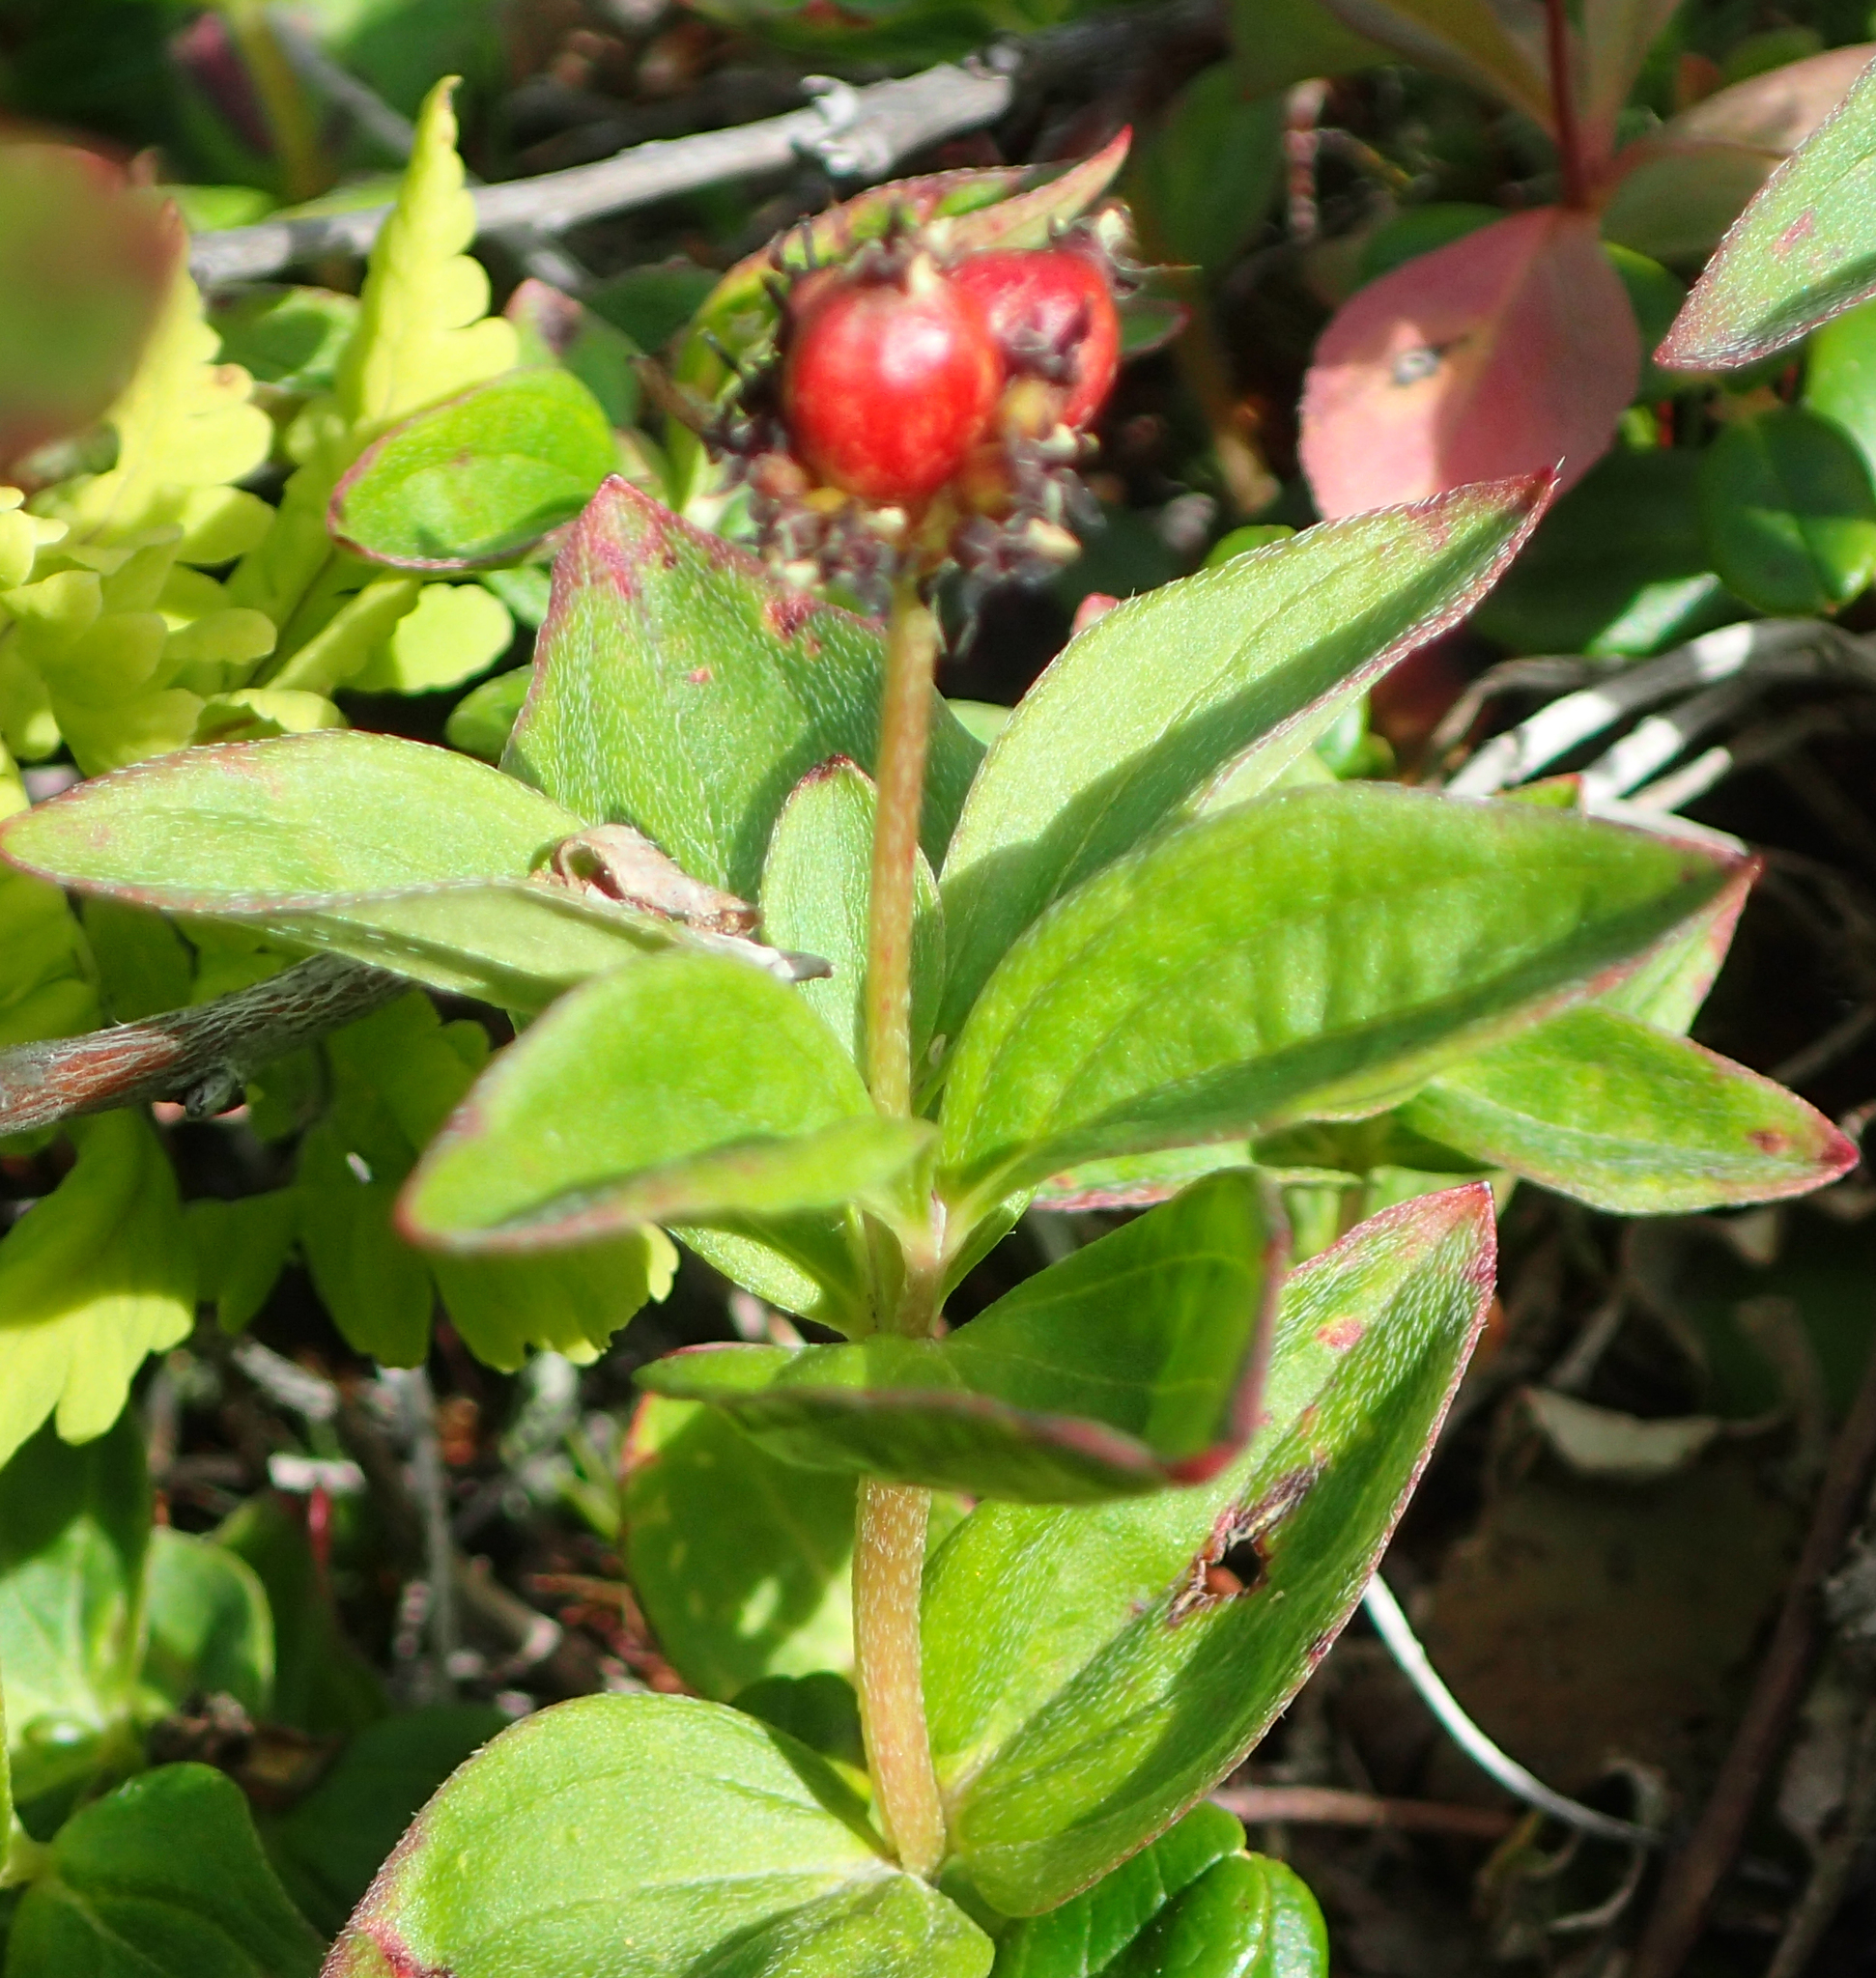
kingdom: Plantae
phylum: Tracheophyta
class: Magnoliopsida
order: Cornales
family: Cornaceae
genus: Cornus
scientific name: Cornus suecica
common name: Dwarf cornel
